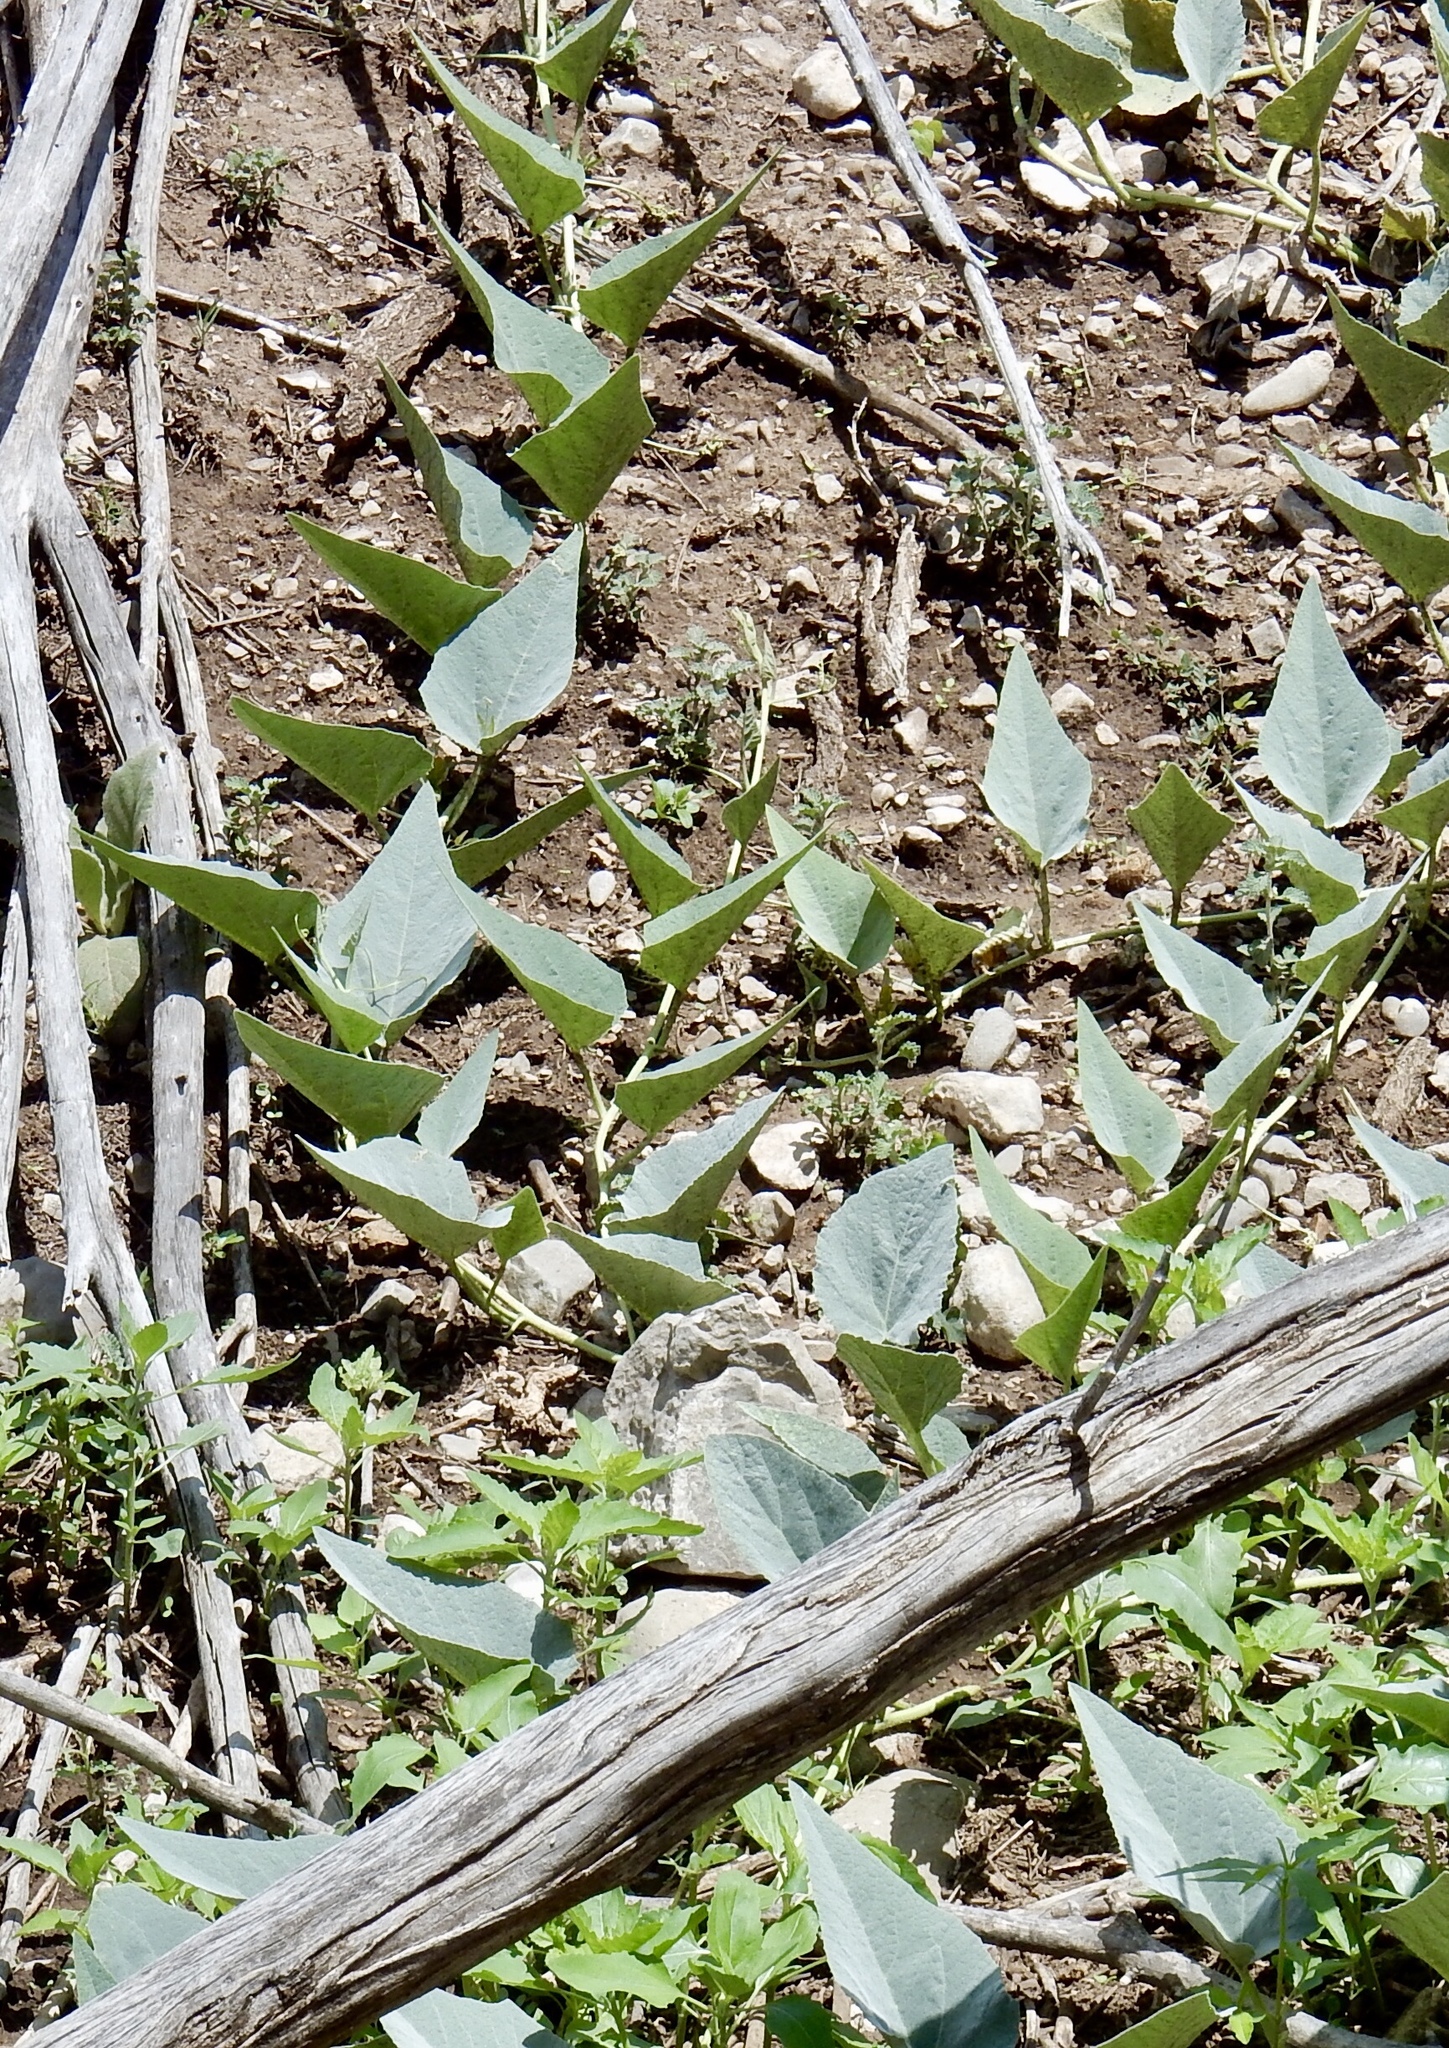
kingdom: Plantae
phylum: Tracheophyta
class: Magnoliopsida
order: Cucurbitales
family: Cucurbitaceae
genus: Cucurbita
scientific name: Cucurbita foetidissima
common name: Buffalo gourd
